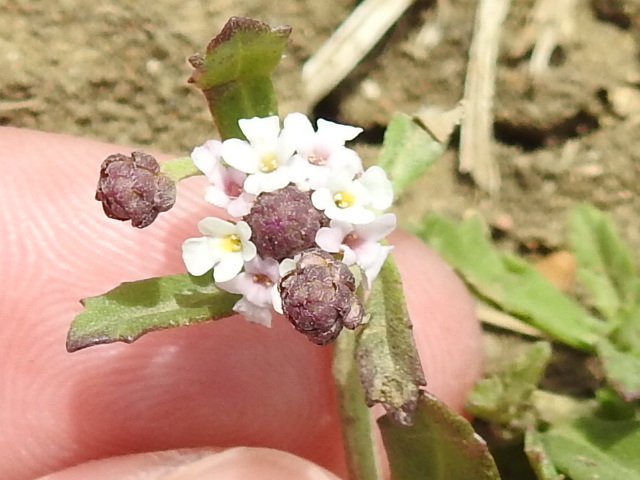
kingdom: Plantae
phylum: Tracheophyta
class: Magnoliopsida
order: Lamiales
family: Verbenaceae
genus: Phyla
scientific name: Phyla nodiflora
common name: Frogfruit
